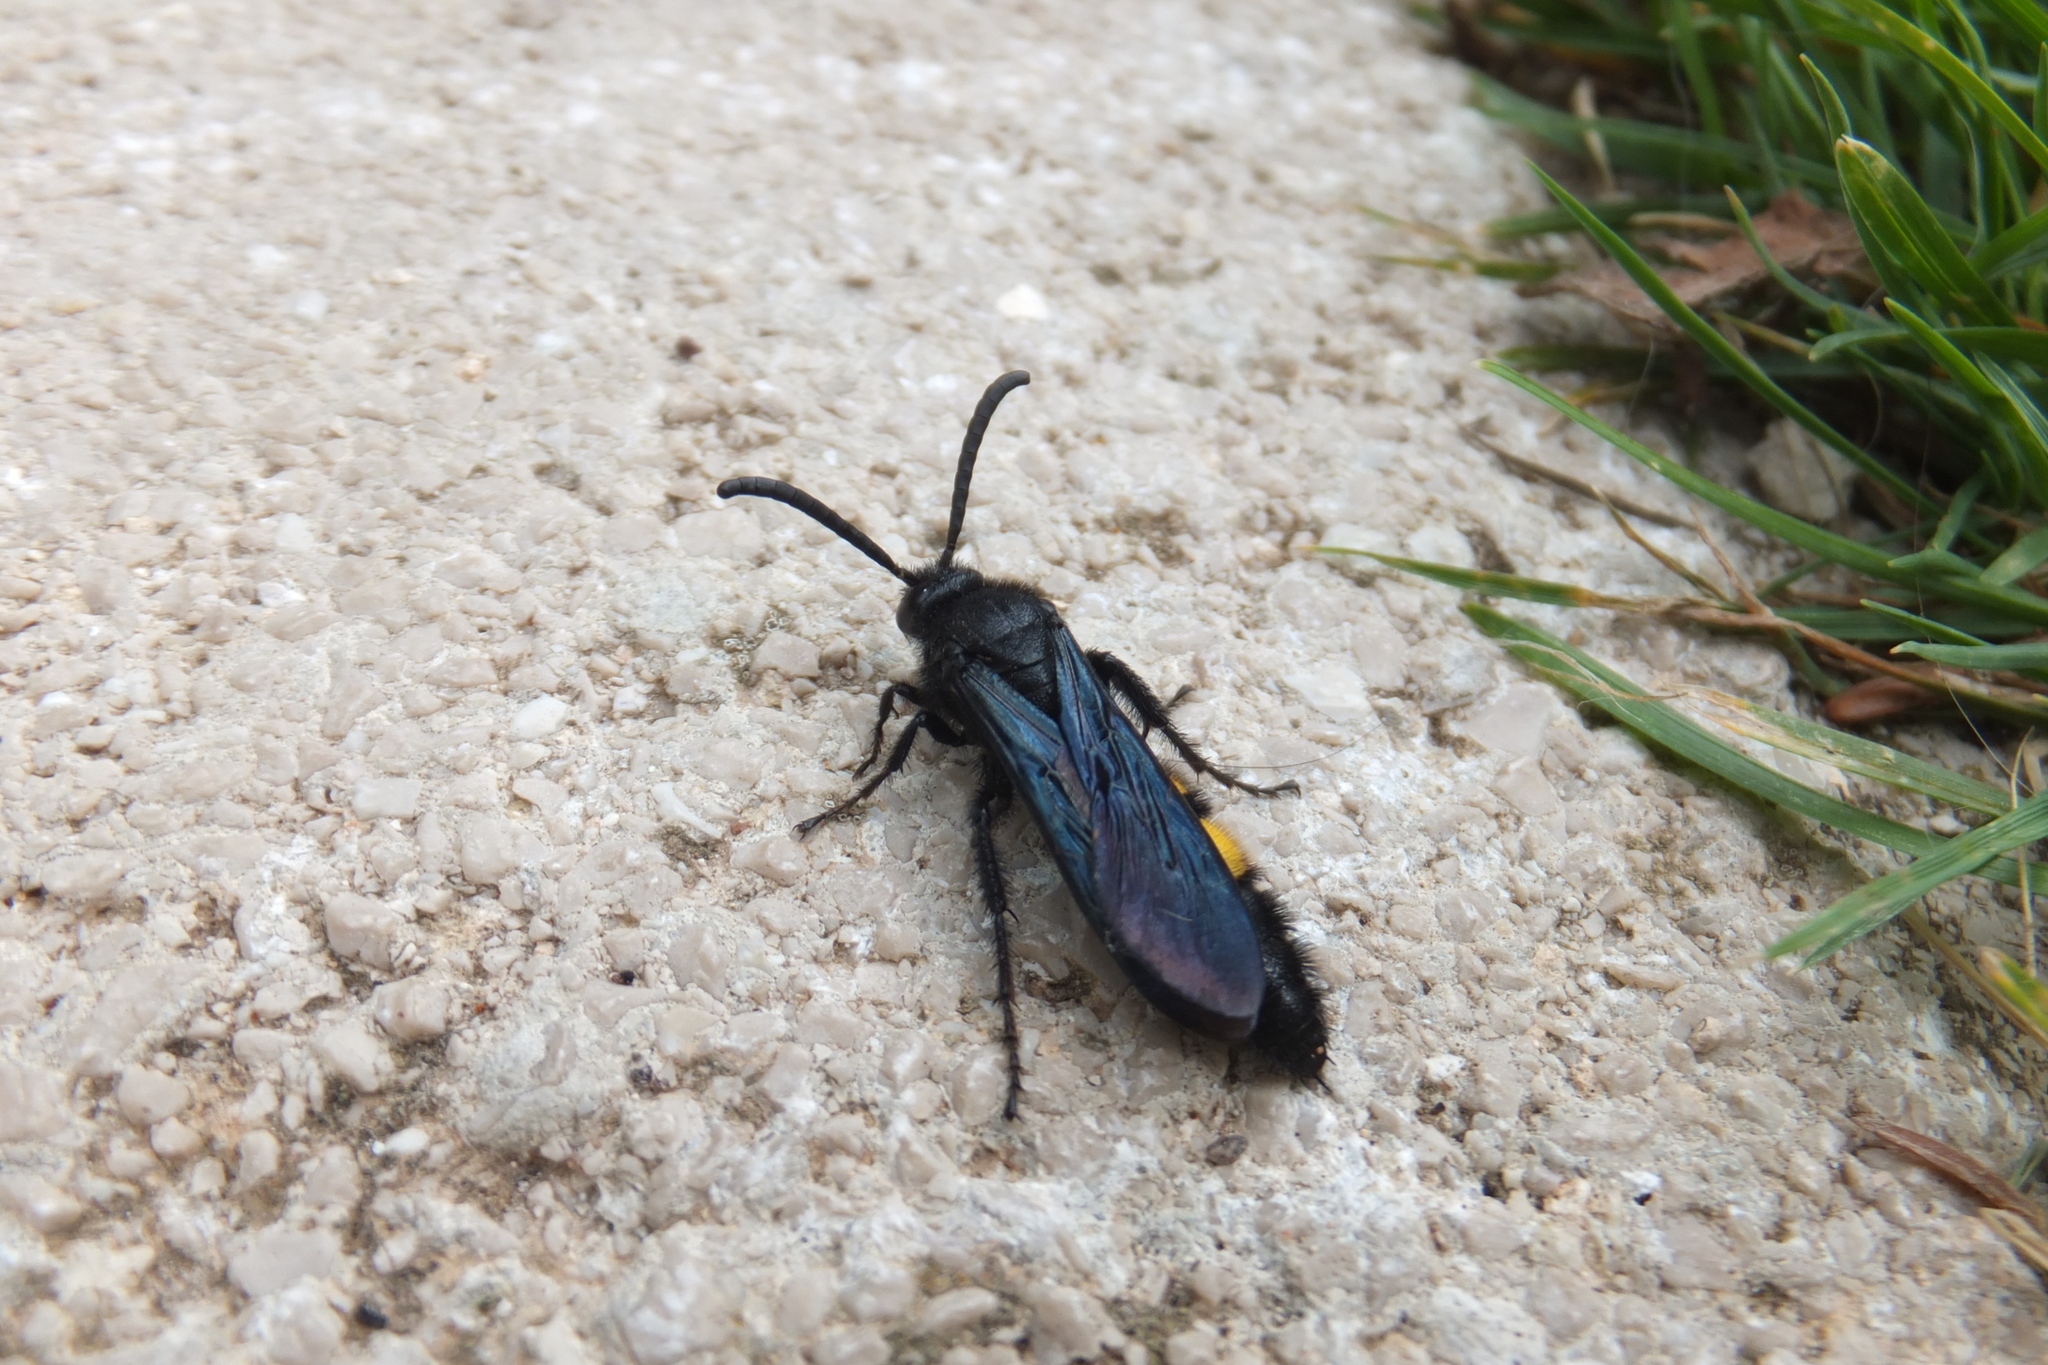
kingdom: Animalia
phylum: Arthropoda
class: Insecta
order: Hymenoptera
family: Scoliidae
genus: Scolia
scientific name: Scolia hirta
